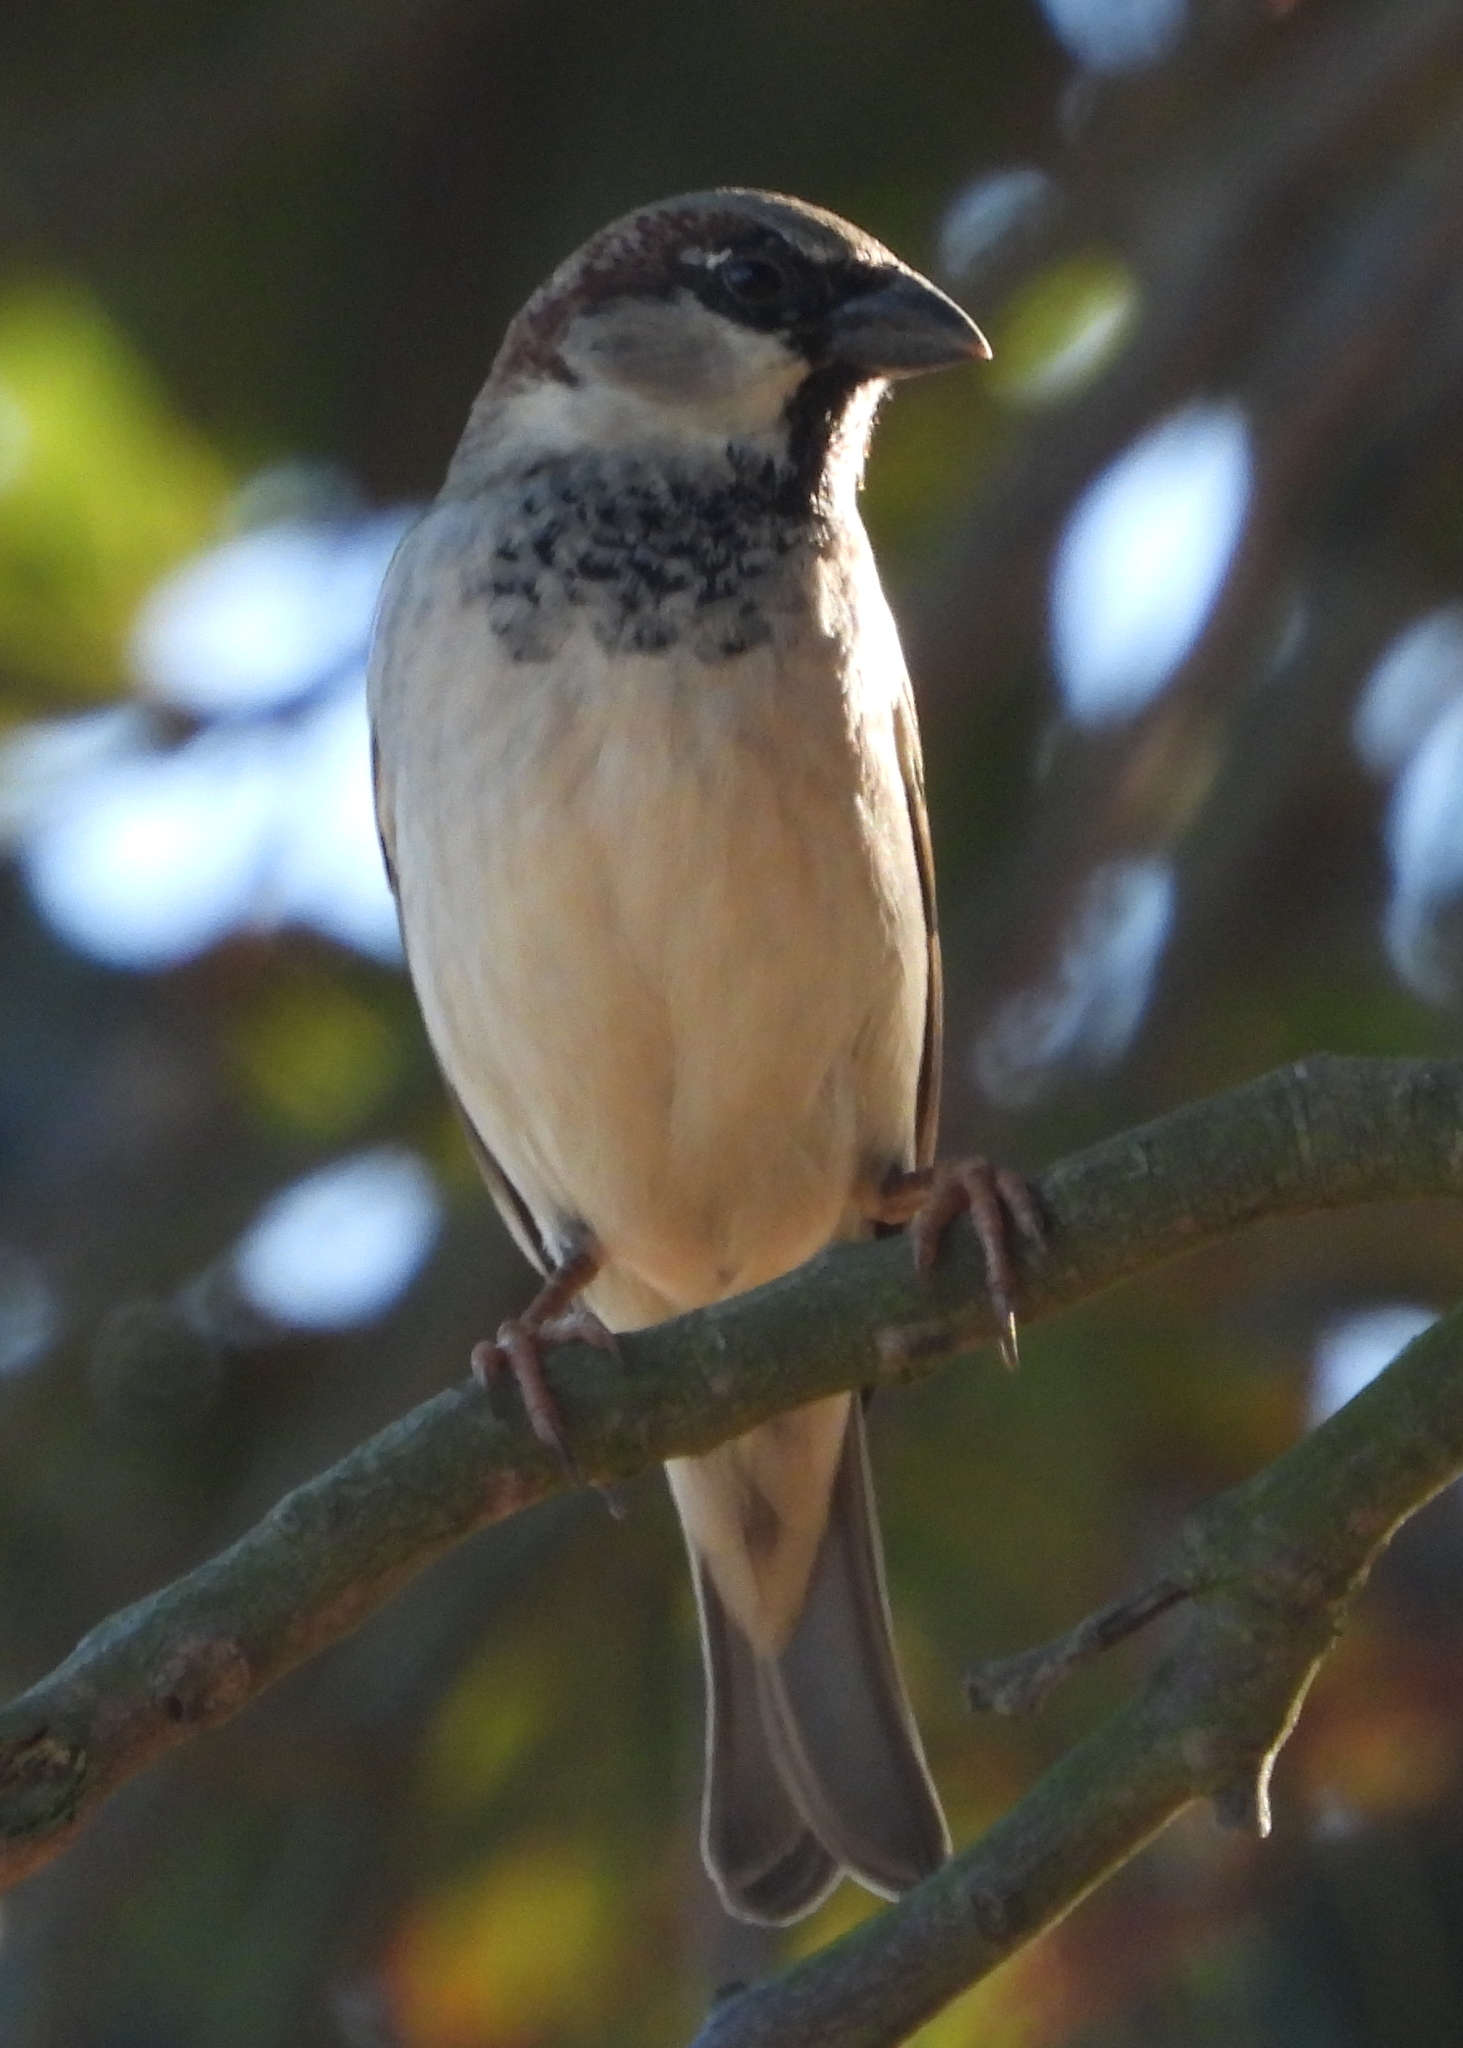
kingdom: Animalia
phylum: Chordata
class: Aves
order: Passeriformes
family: Passeridae
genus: Passer
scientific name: Passer domesticus
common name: House sparrow
